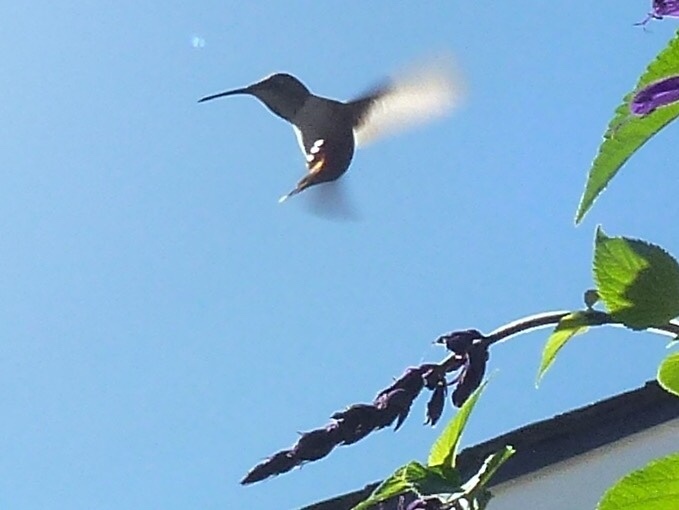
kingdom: Animalia
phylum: Chordata
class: Aves
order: Apodiformes
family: Trochilidae
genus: Selasphorus
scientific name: Selasphorus sasin
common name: Allen's hummingbird
